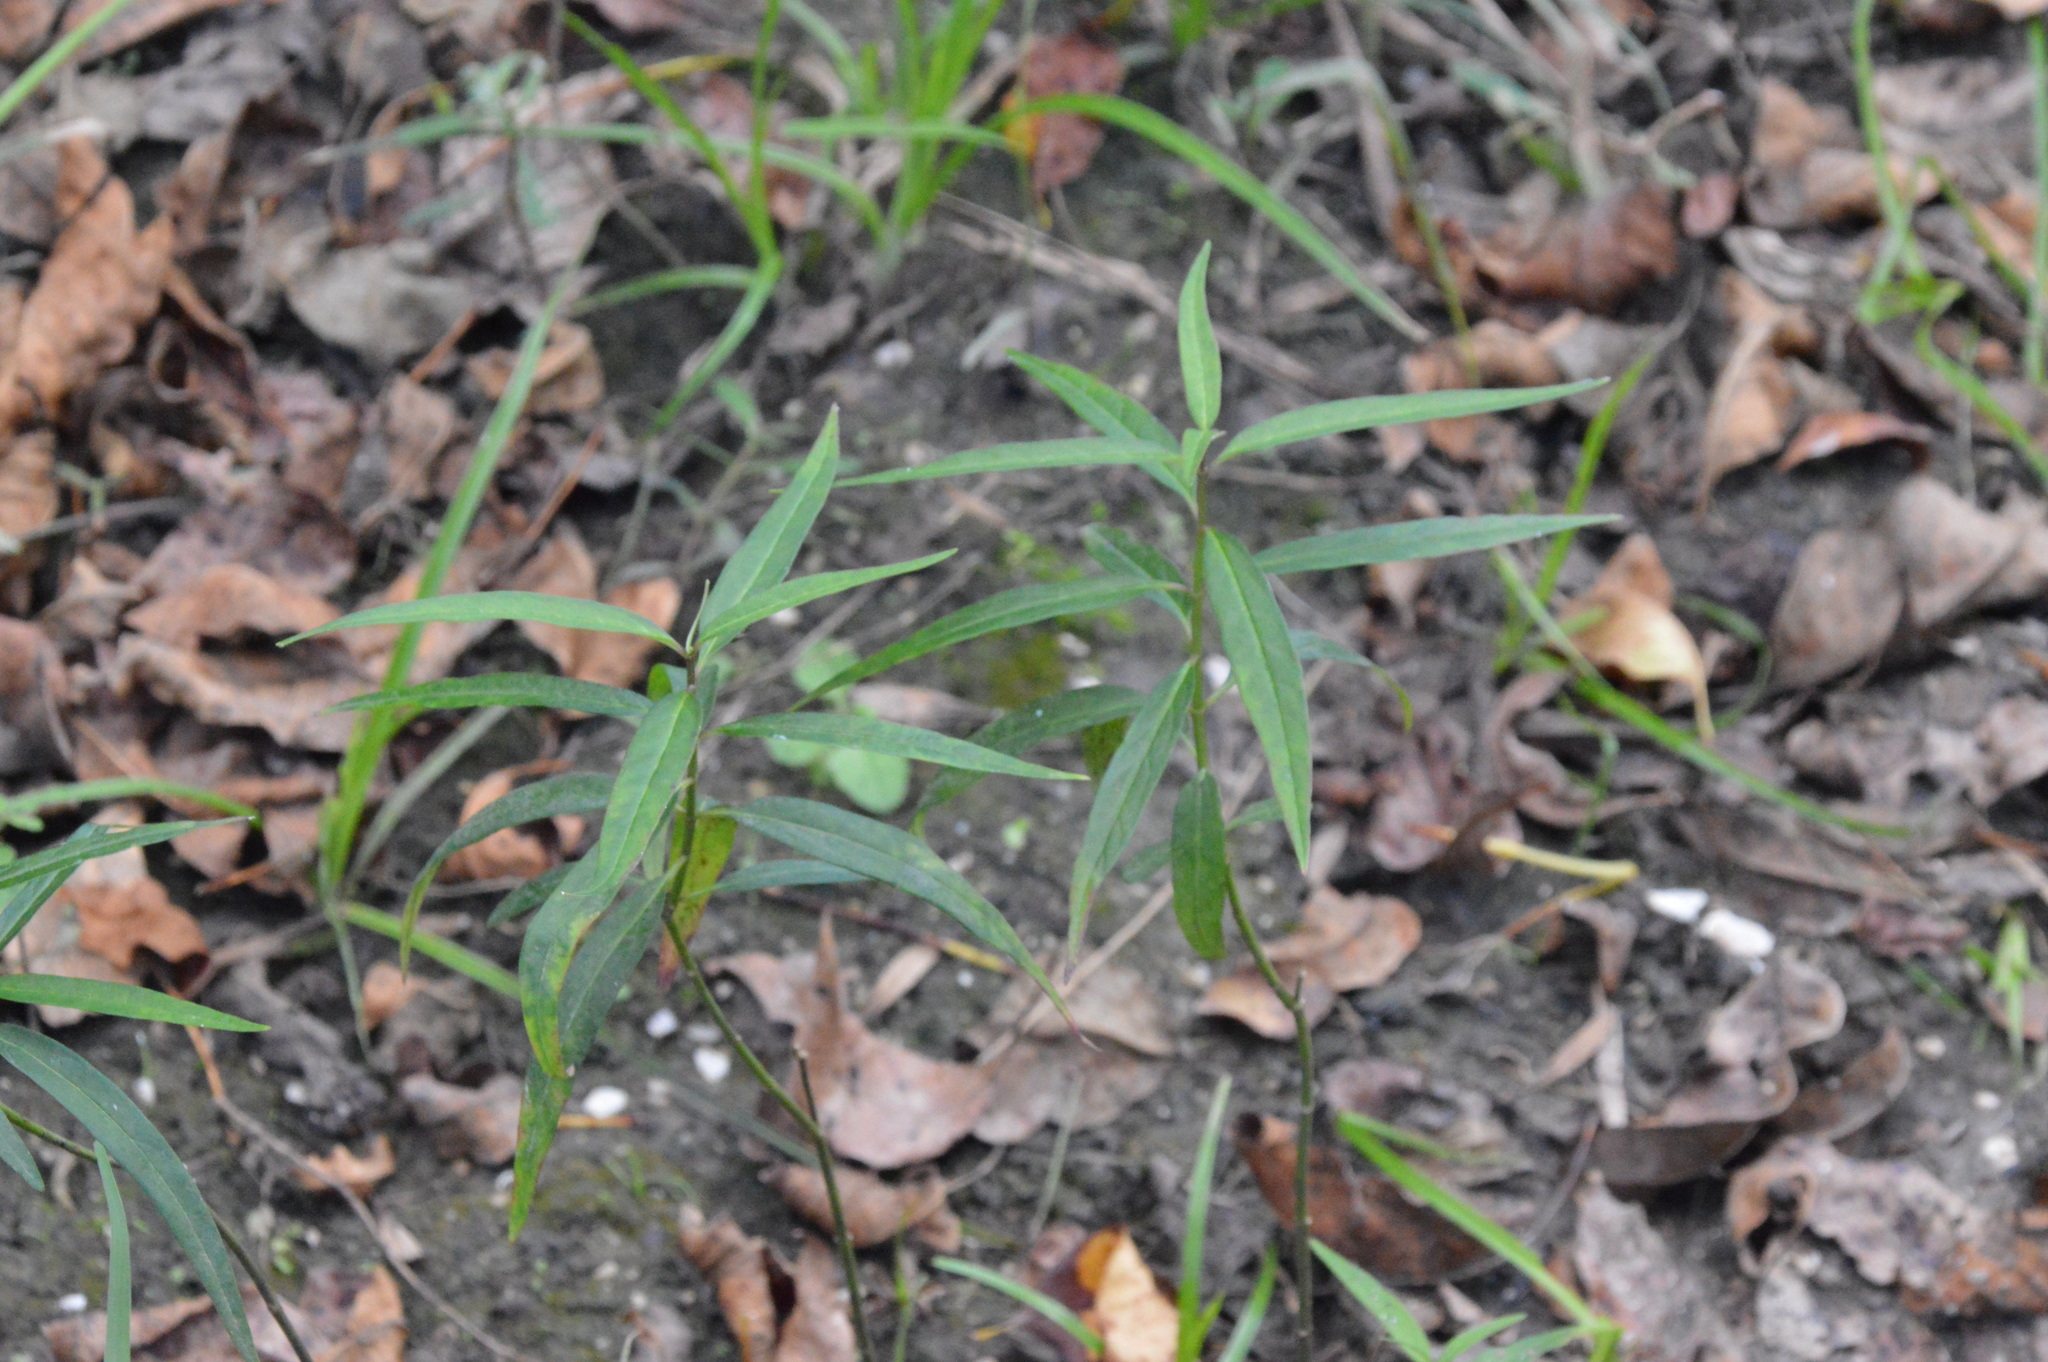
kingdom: Plantae
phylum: Tracheophyta
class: Magnoliopsida
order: Gentianales
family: Apocynaceae
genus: Asclepias
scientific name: Asclepias perennis
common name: Smooth-seed milkweed
